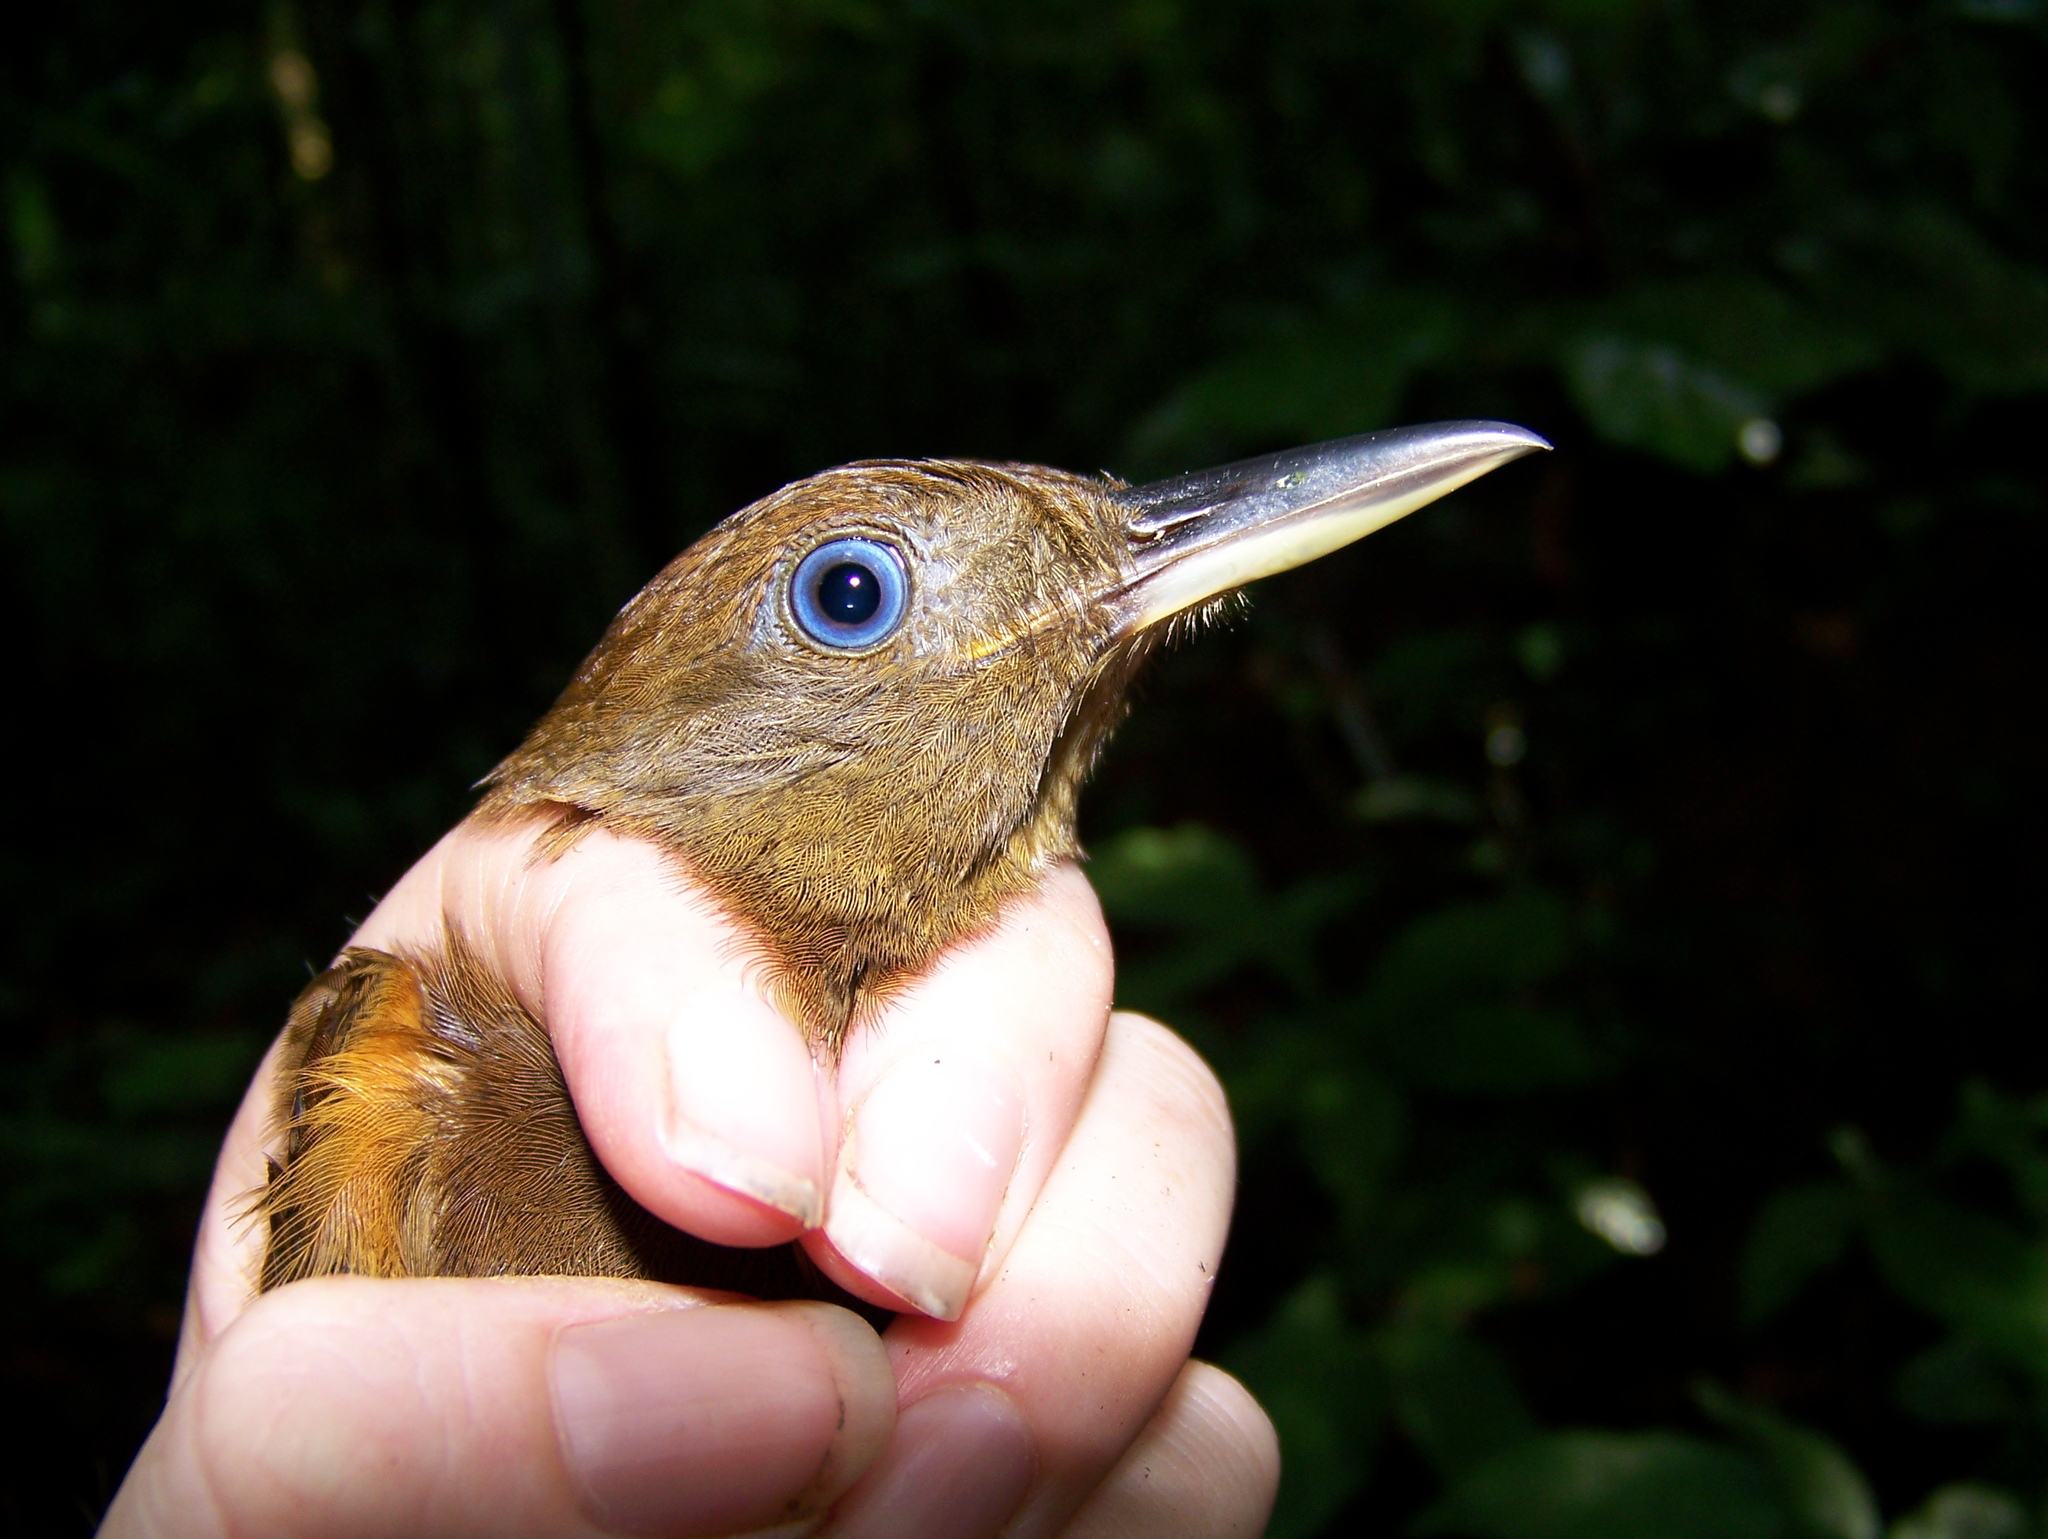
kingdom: Animalia
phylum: Chordata
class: Aves
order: Passeriformes
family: Furnariidae
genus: Dendrocincla
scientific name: Dendrocincla merula
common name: White-chinned woodcreeper
